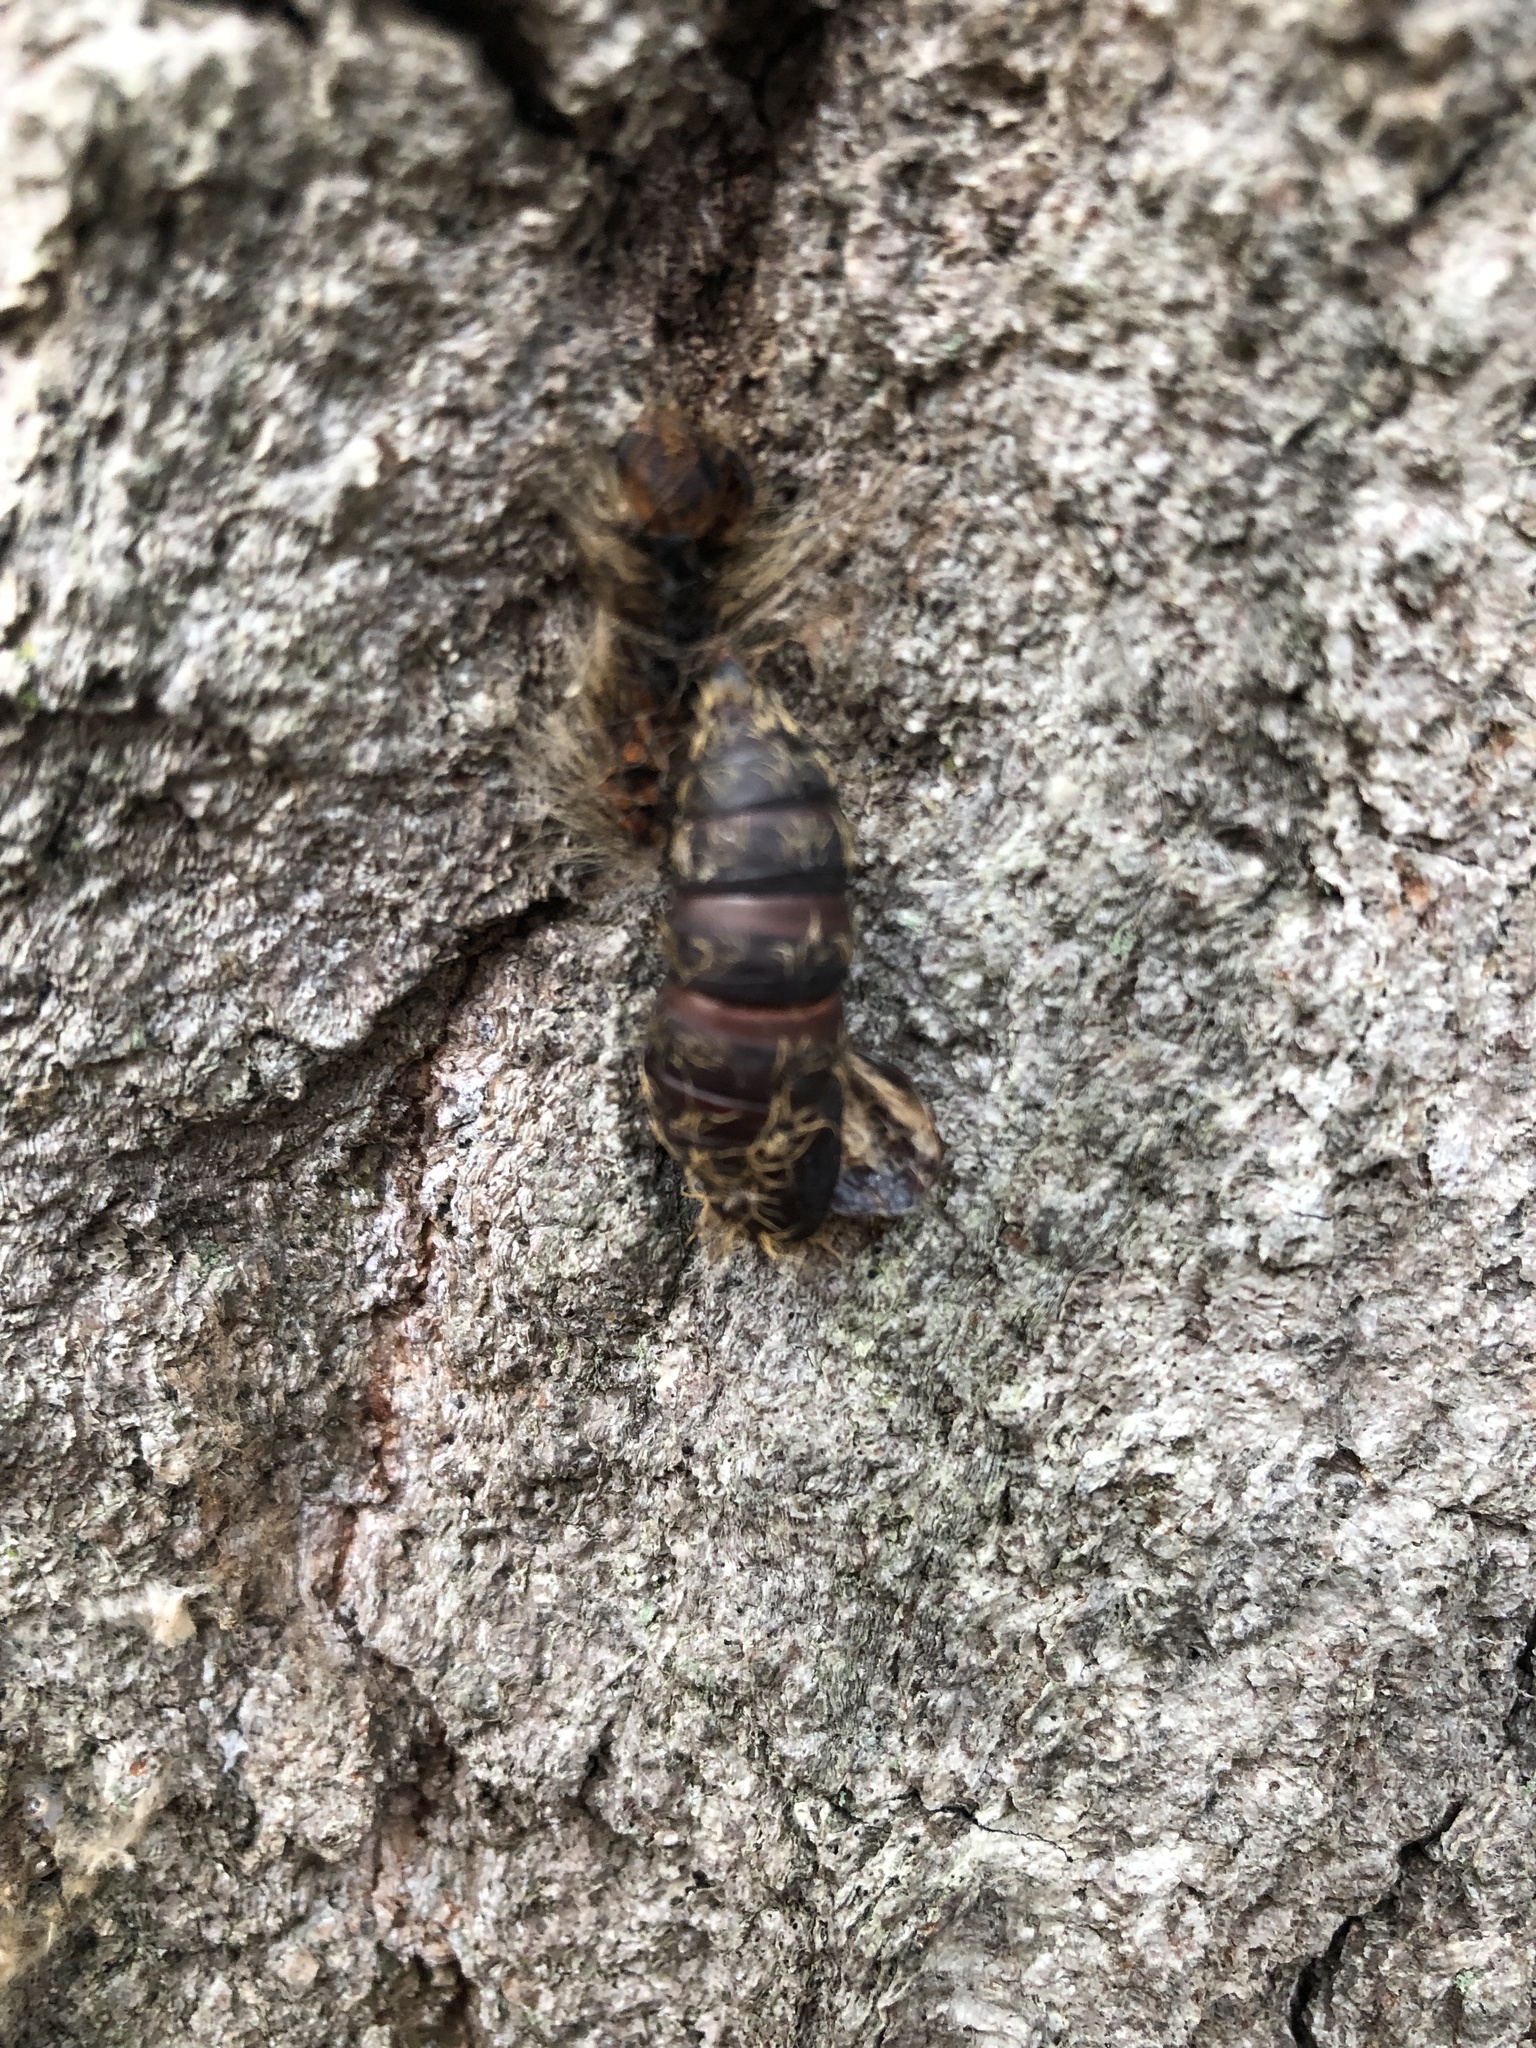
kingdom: Animalia
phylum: Arthropoda
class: Insecta
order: Lepidoptera
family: Erebidae
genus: Lymantria
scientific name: Lymantria dispar
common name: Gypsy moth
